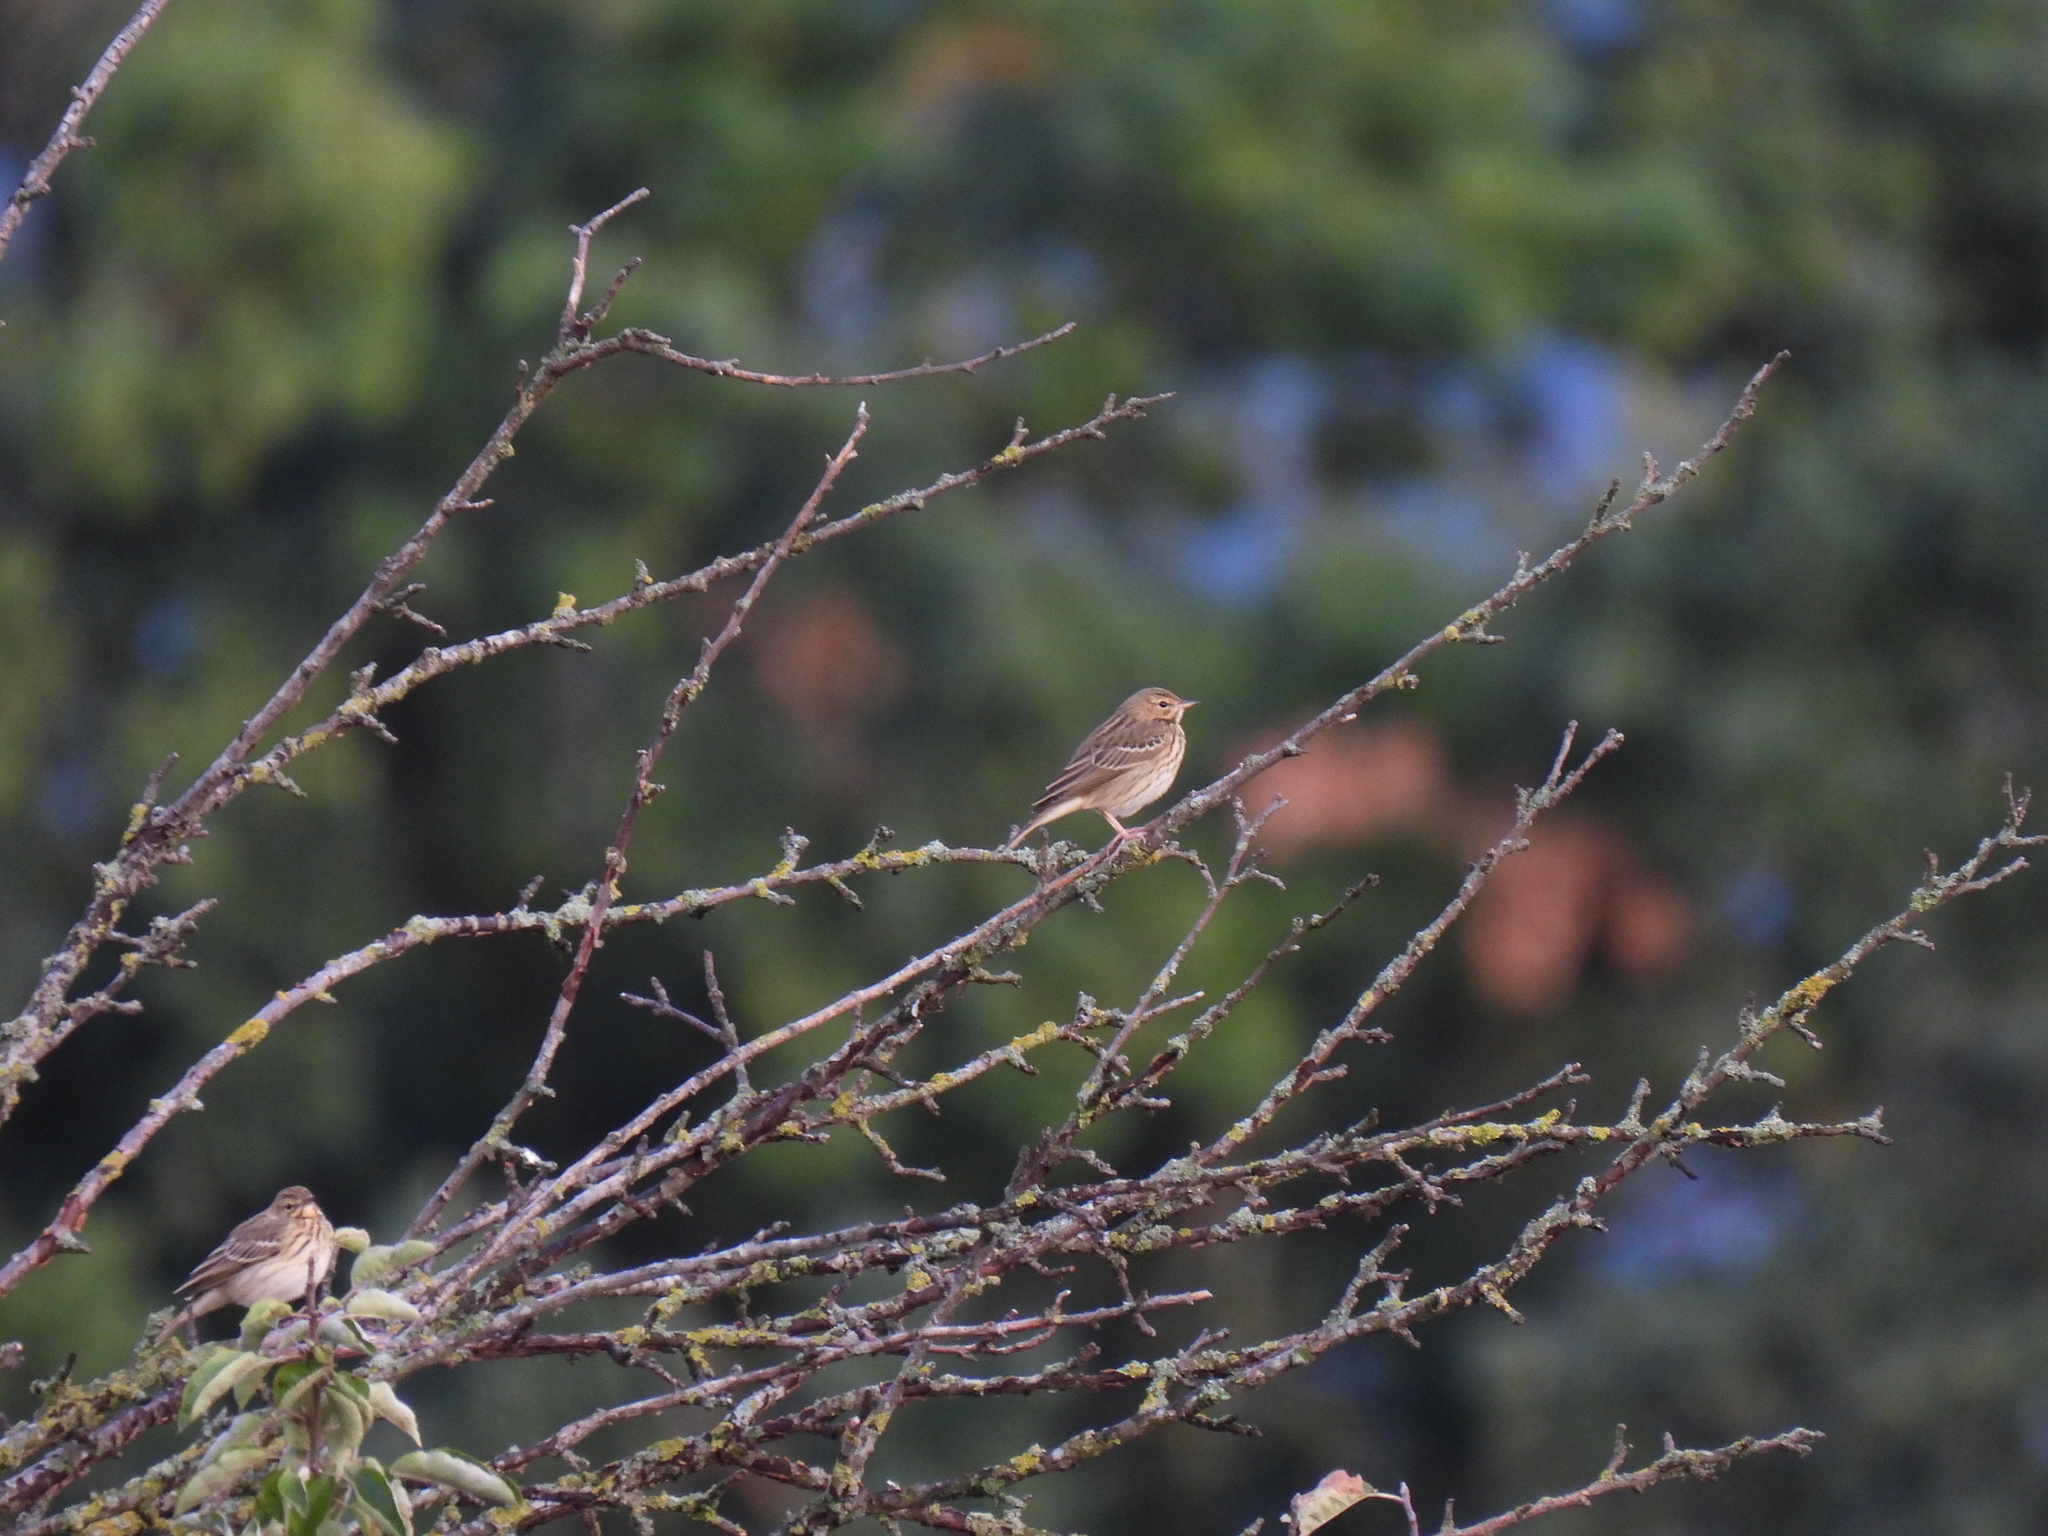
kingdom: Animalia
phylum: Chordata
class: Aves
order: Passeriformes
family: Motacillidae
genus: Anthus
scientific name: Anthus trivialis
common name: Tree pipit
